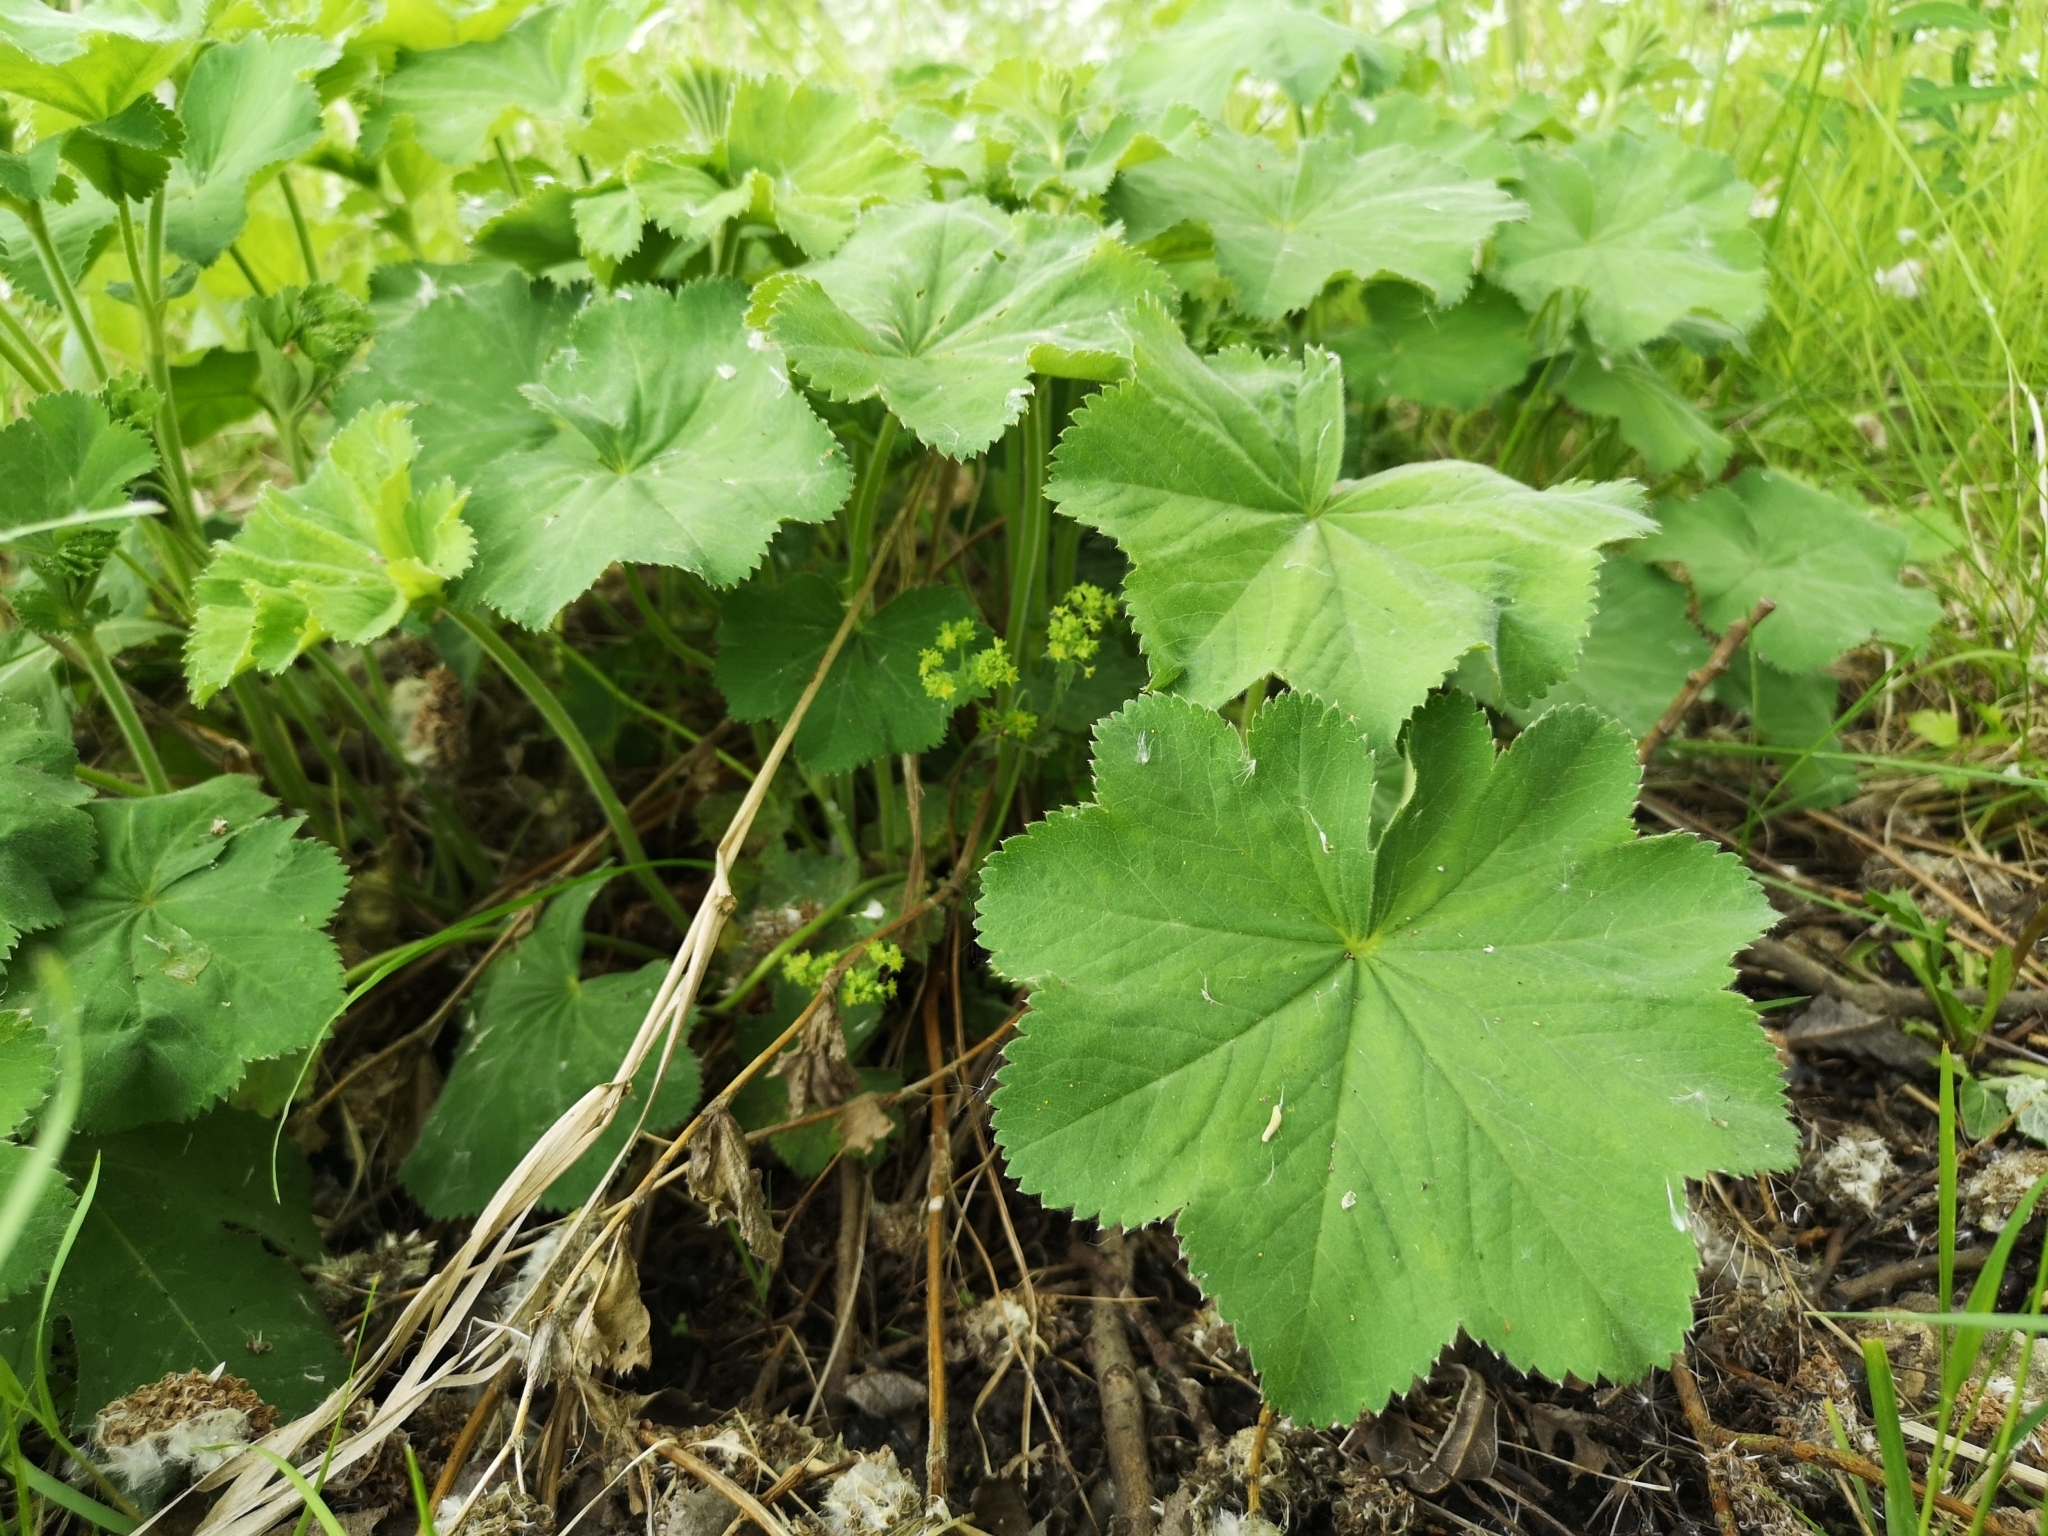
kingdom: Plantae
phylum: Tracheophyta
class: Magnoliopsida
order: Rosales
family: Rosaceae
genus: Alchemilla
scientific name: Alchemilla mollis
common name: Lady's-mantle
